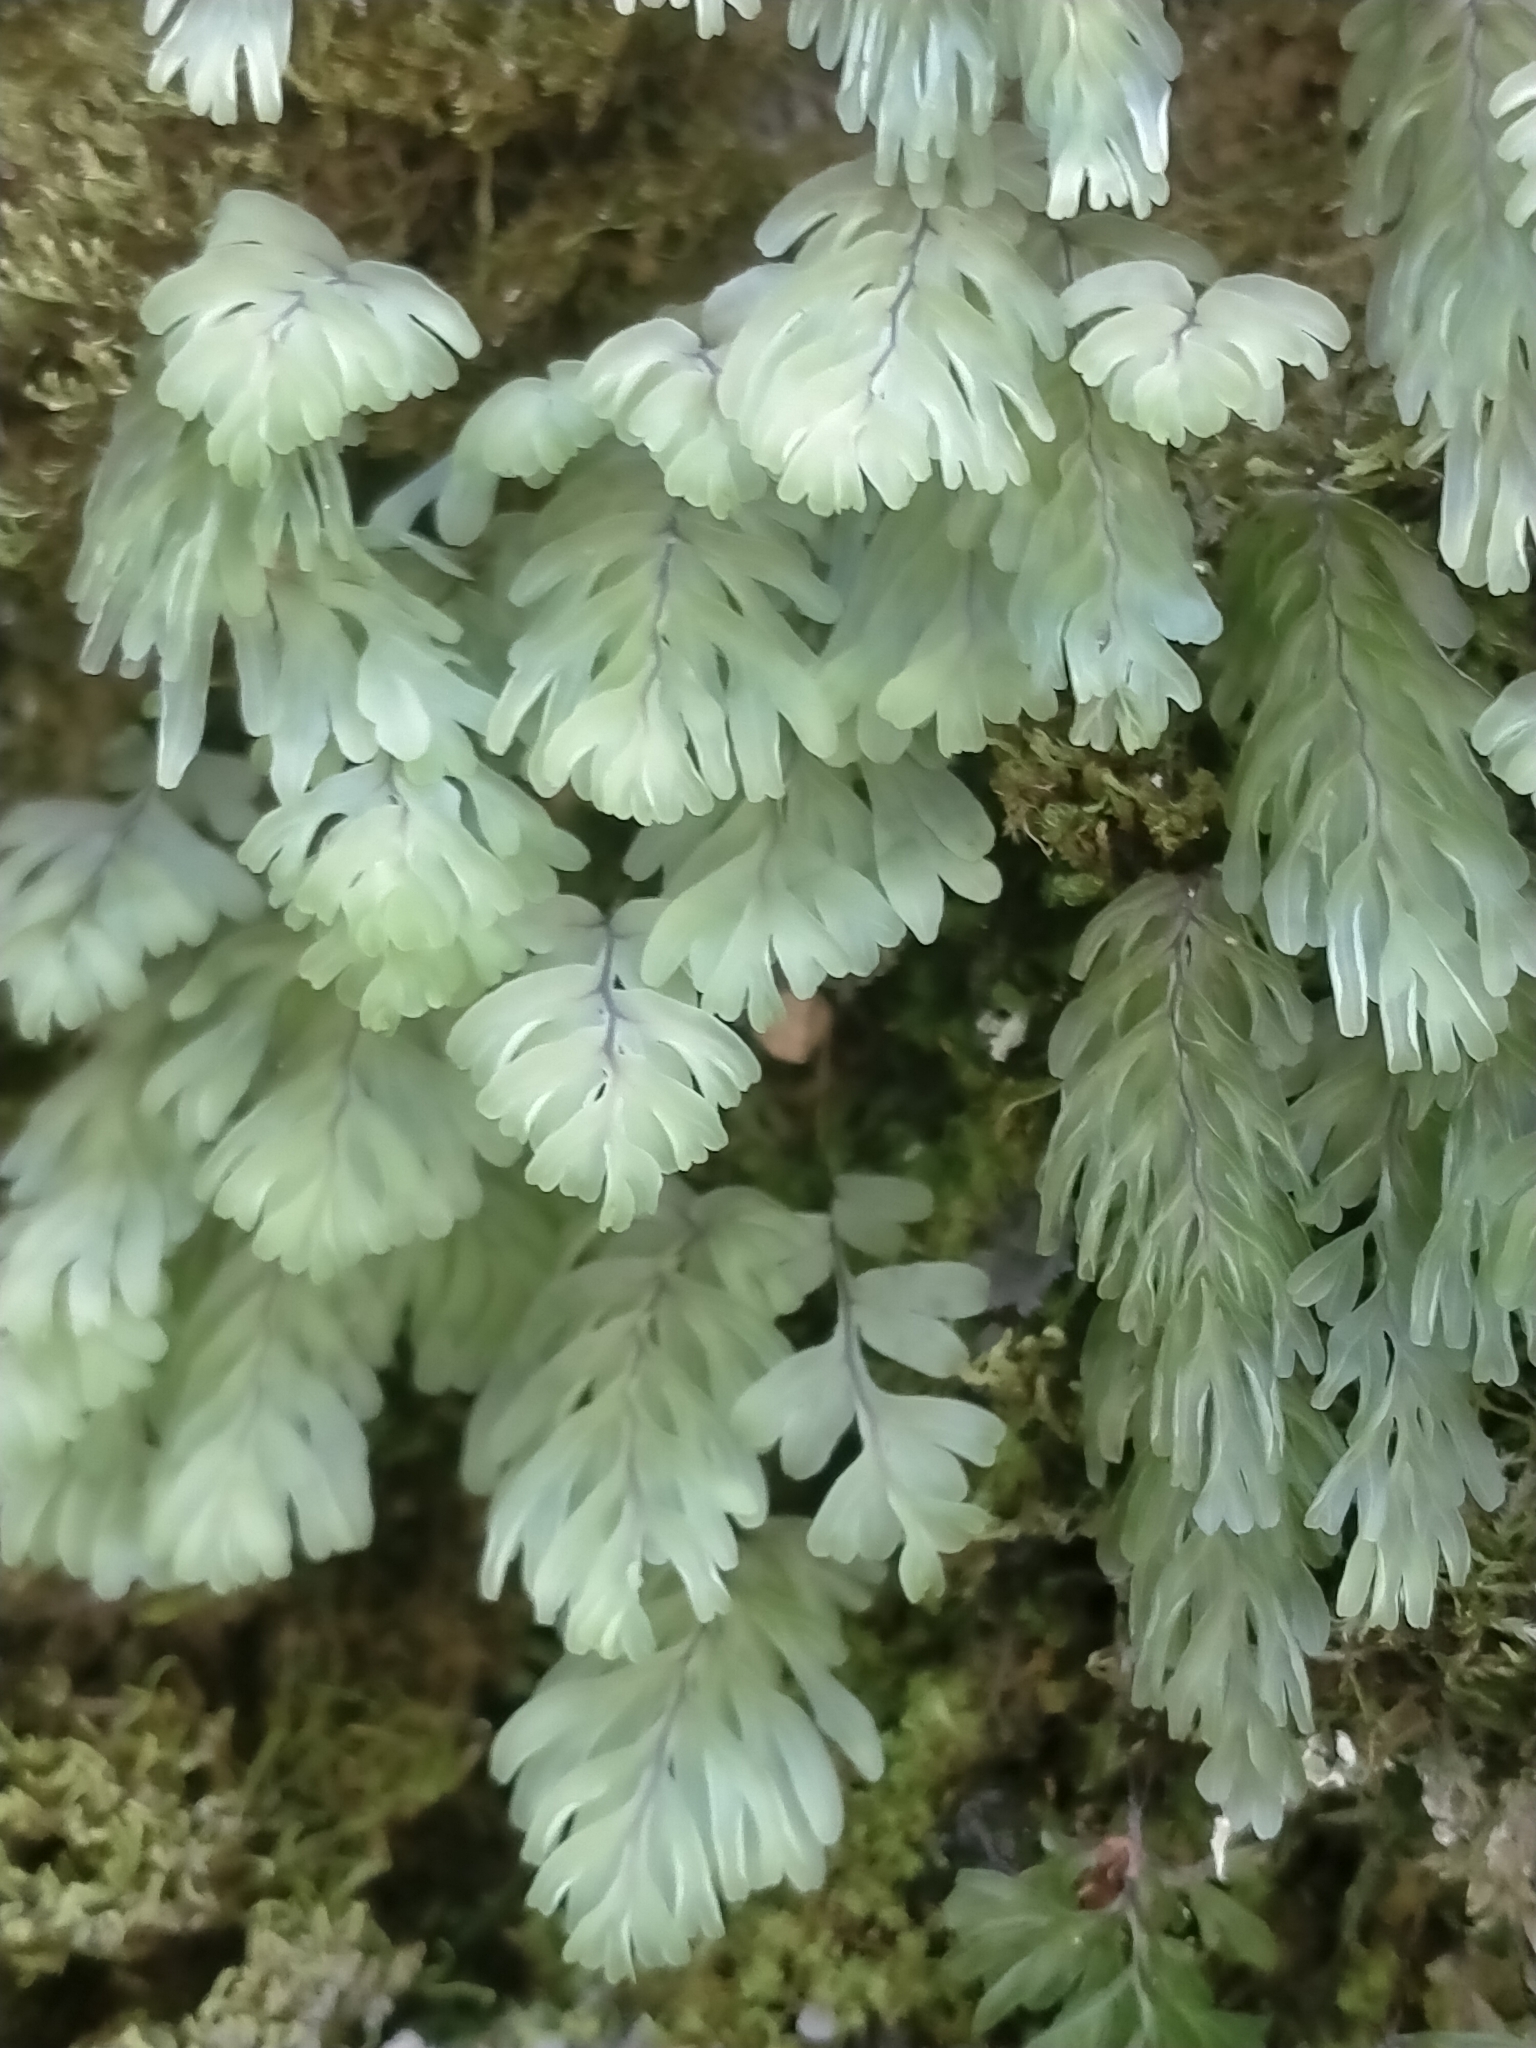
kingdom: Plantae
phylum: Tracheophyta
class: Polypodiopsida
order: Hymenophyllales
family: Hymenophyllaceae
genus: Hymenophyllum
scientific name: Hymenophyllum rarum
